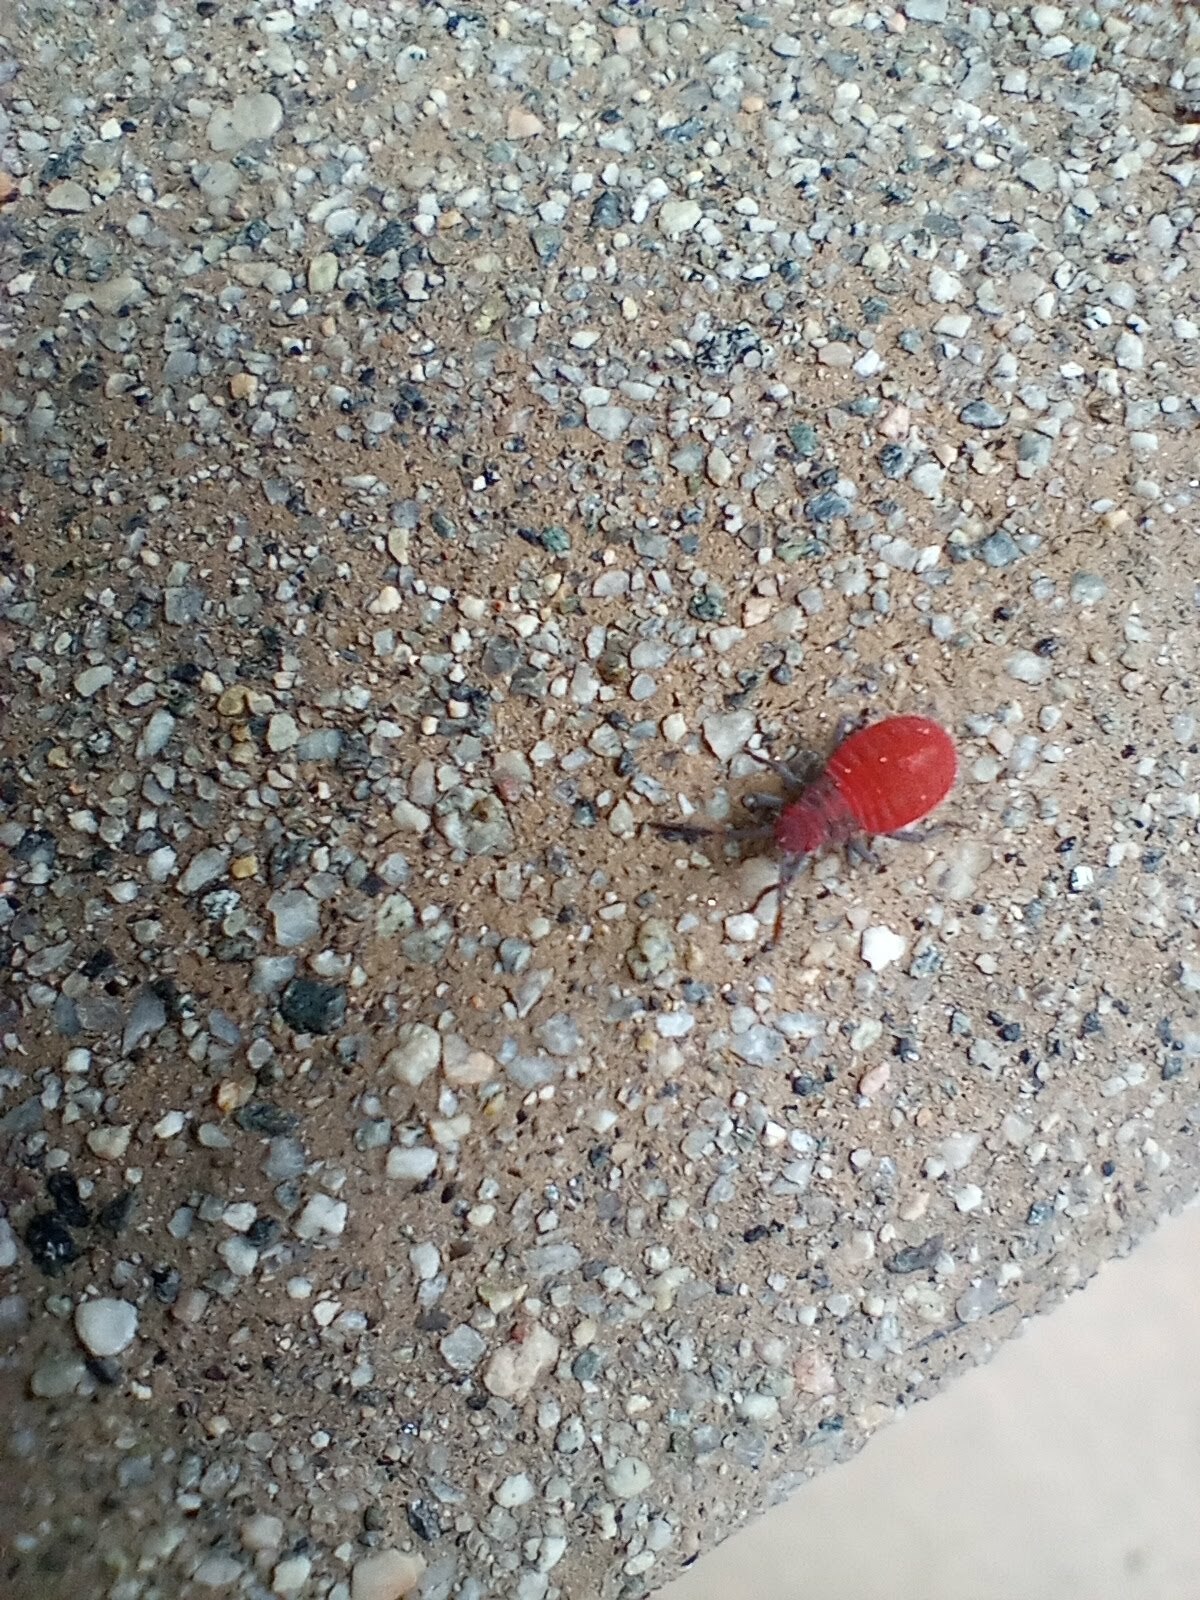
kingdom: Animalia
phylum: Arthropoda
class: Insecta
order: Hemiptera
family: Rhopalidae
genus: Jadera
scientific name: Jadera haematoloma
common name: Red-shouldered bug
